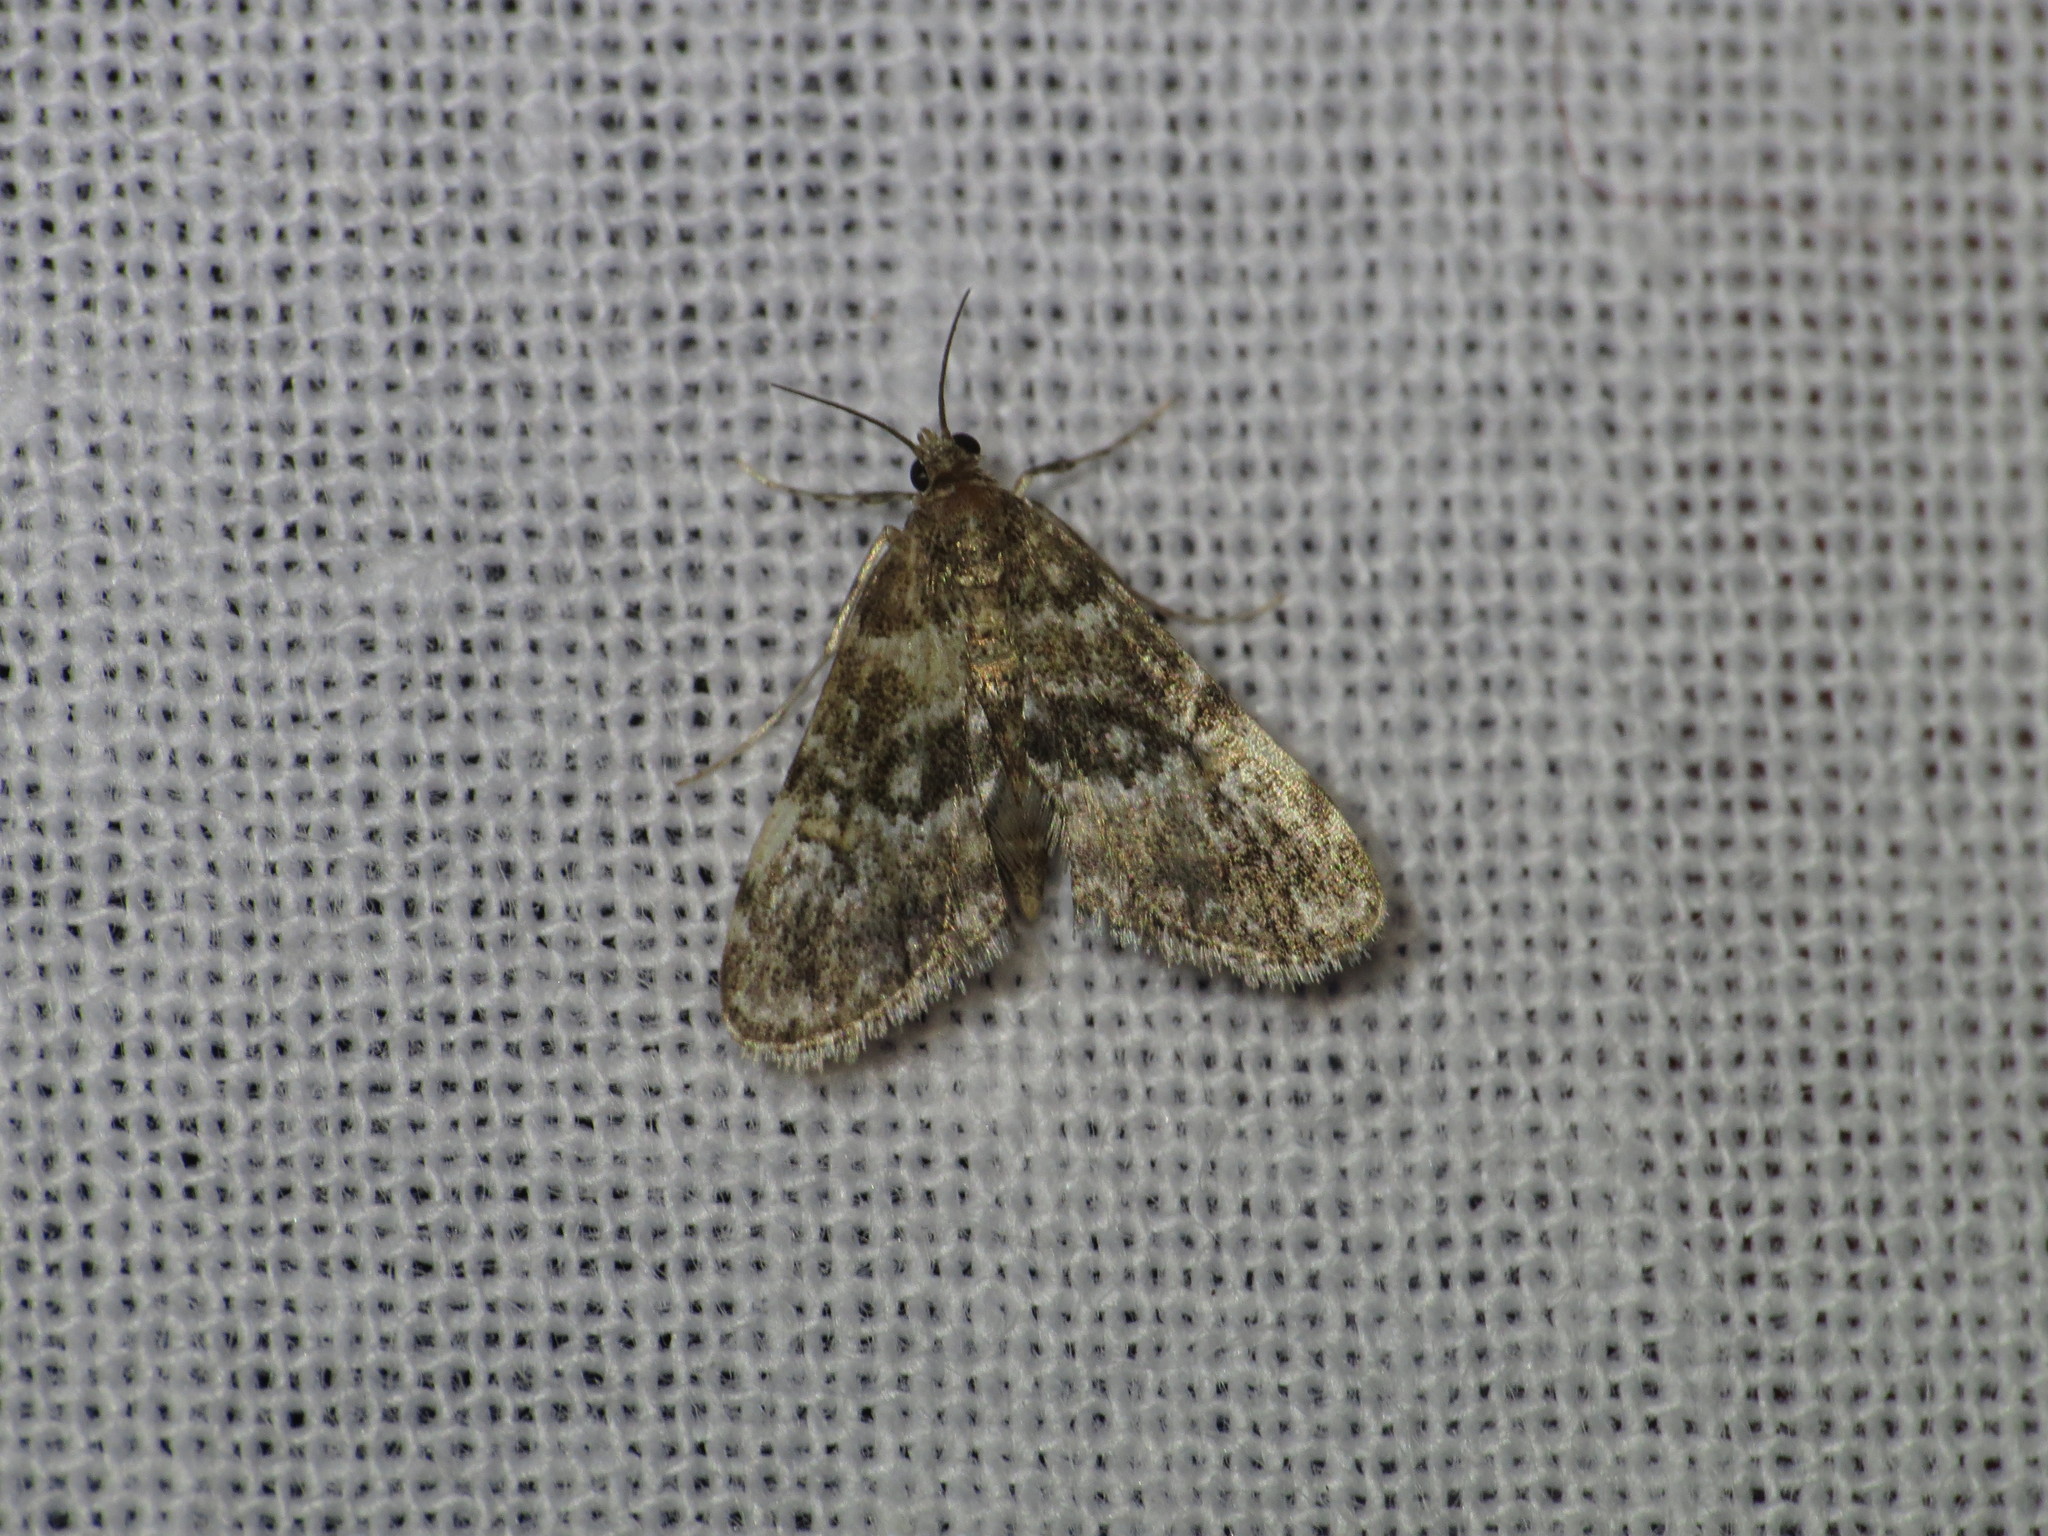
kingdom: Animalia
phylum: Arthropoda
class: Insecta
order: Lepidoptera
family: Crambidae
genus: Elophila
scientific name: Elophila obliteralis
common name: Waterlily leafcutter moth
